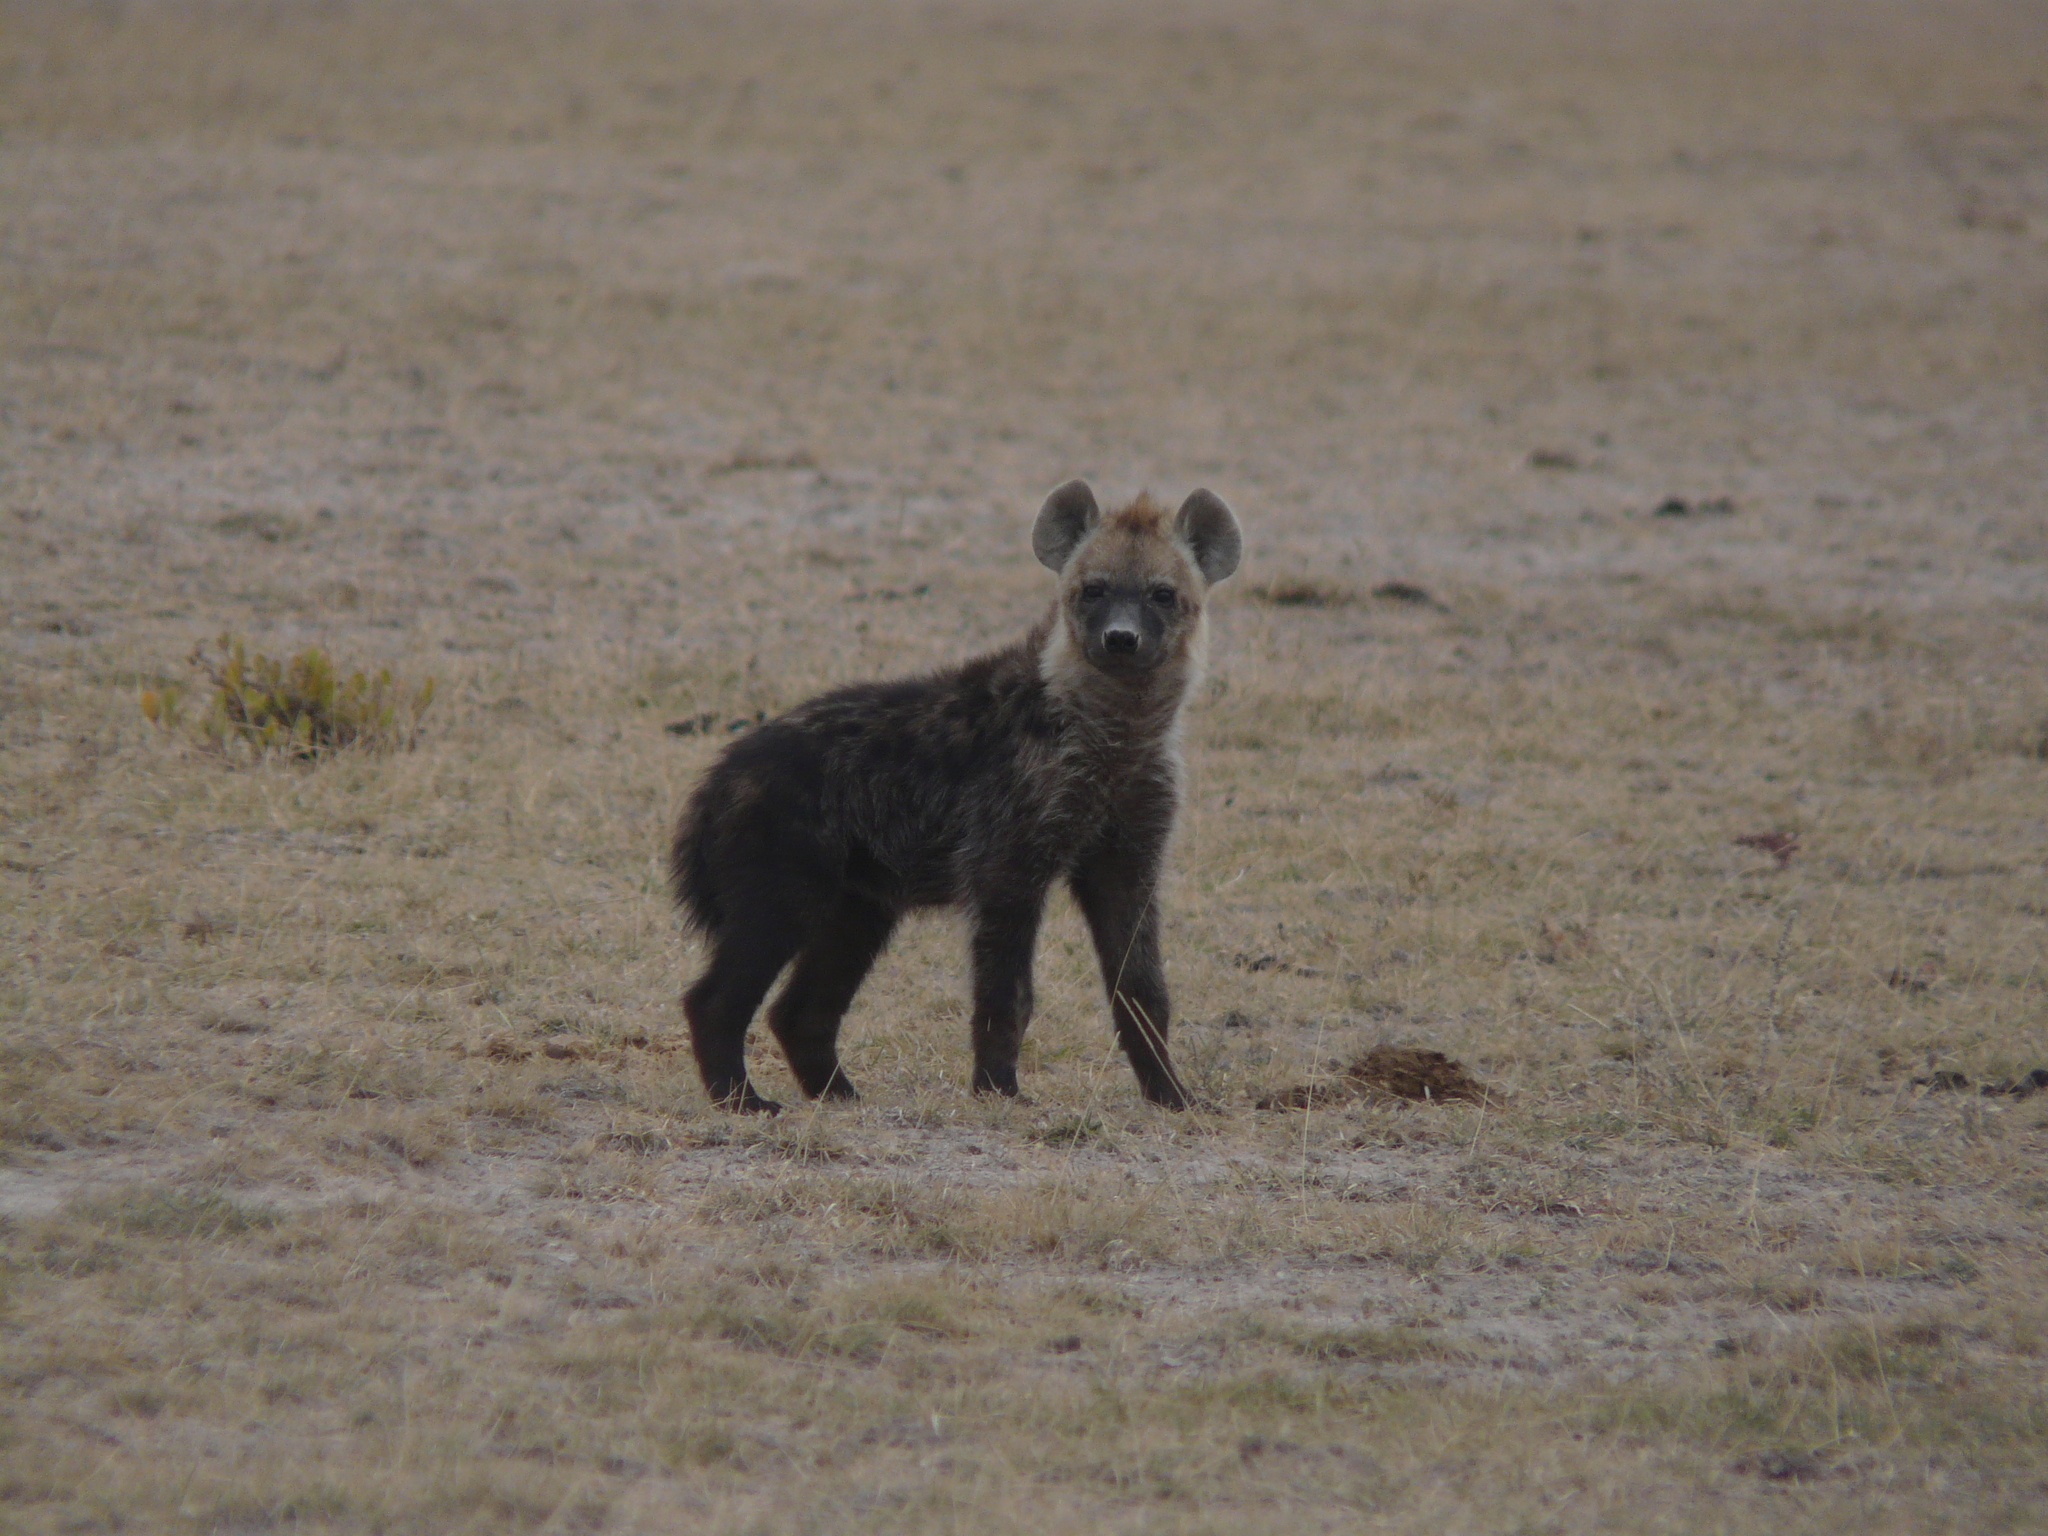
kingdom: Animalia
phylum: Chordata
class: Mammalia
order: Carnivora
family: Hyaenidae
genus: Crocuta
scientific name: Crocuta crocuta
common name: Spotted hyaena
